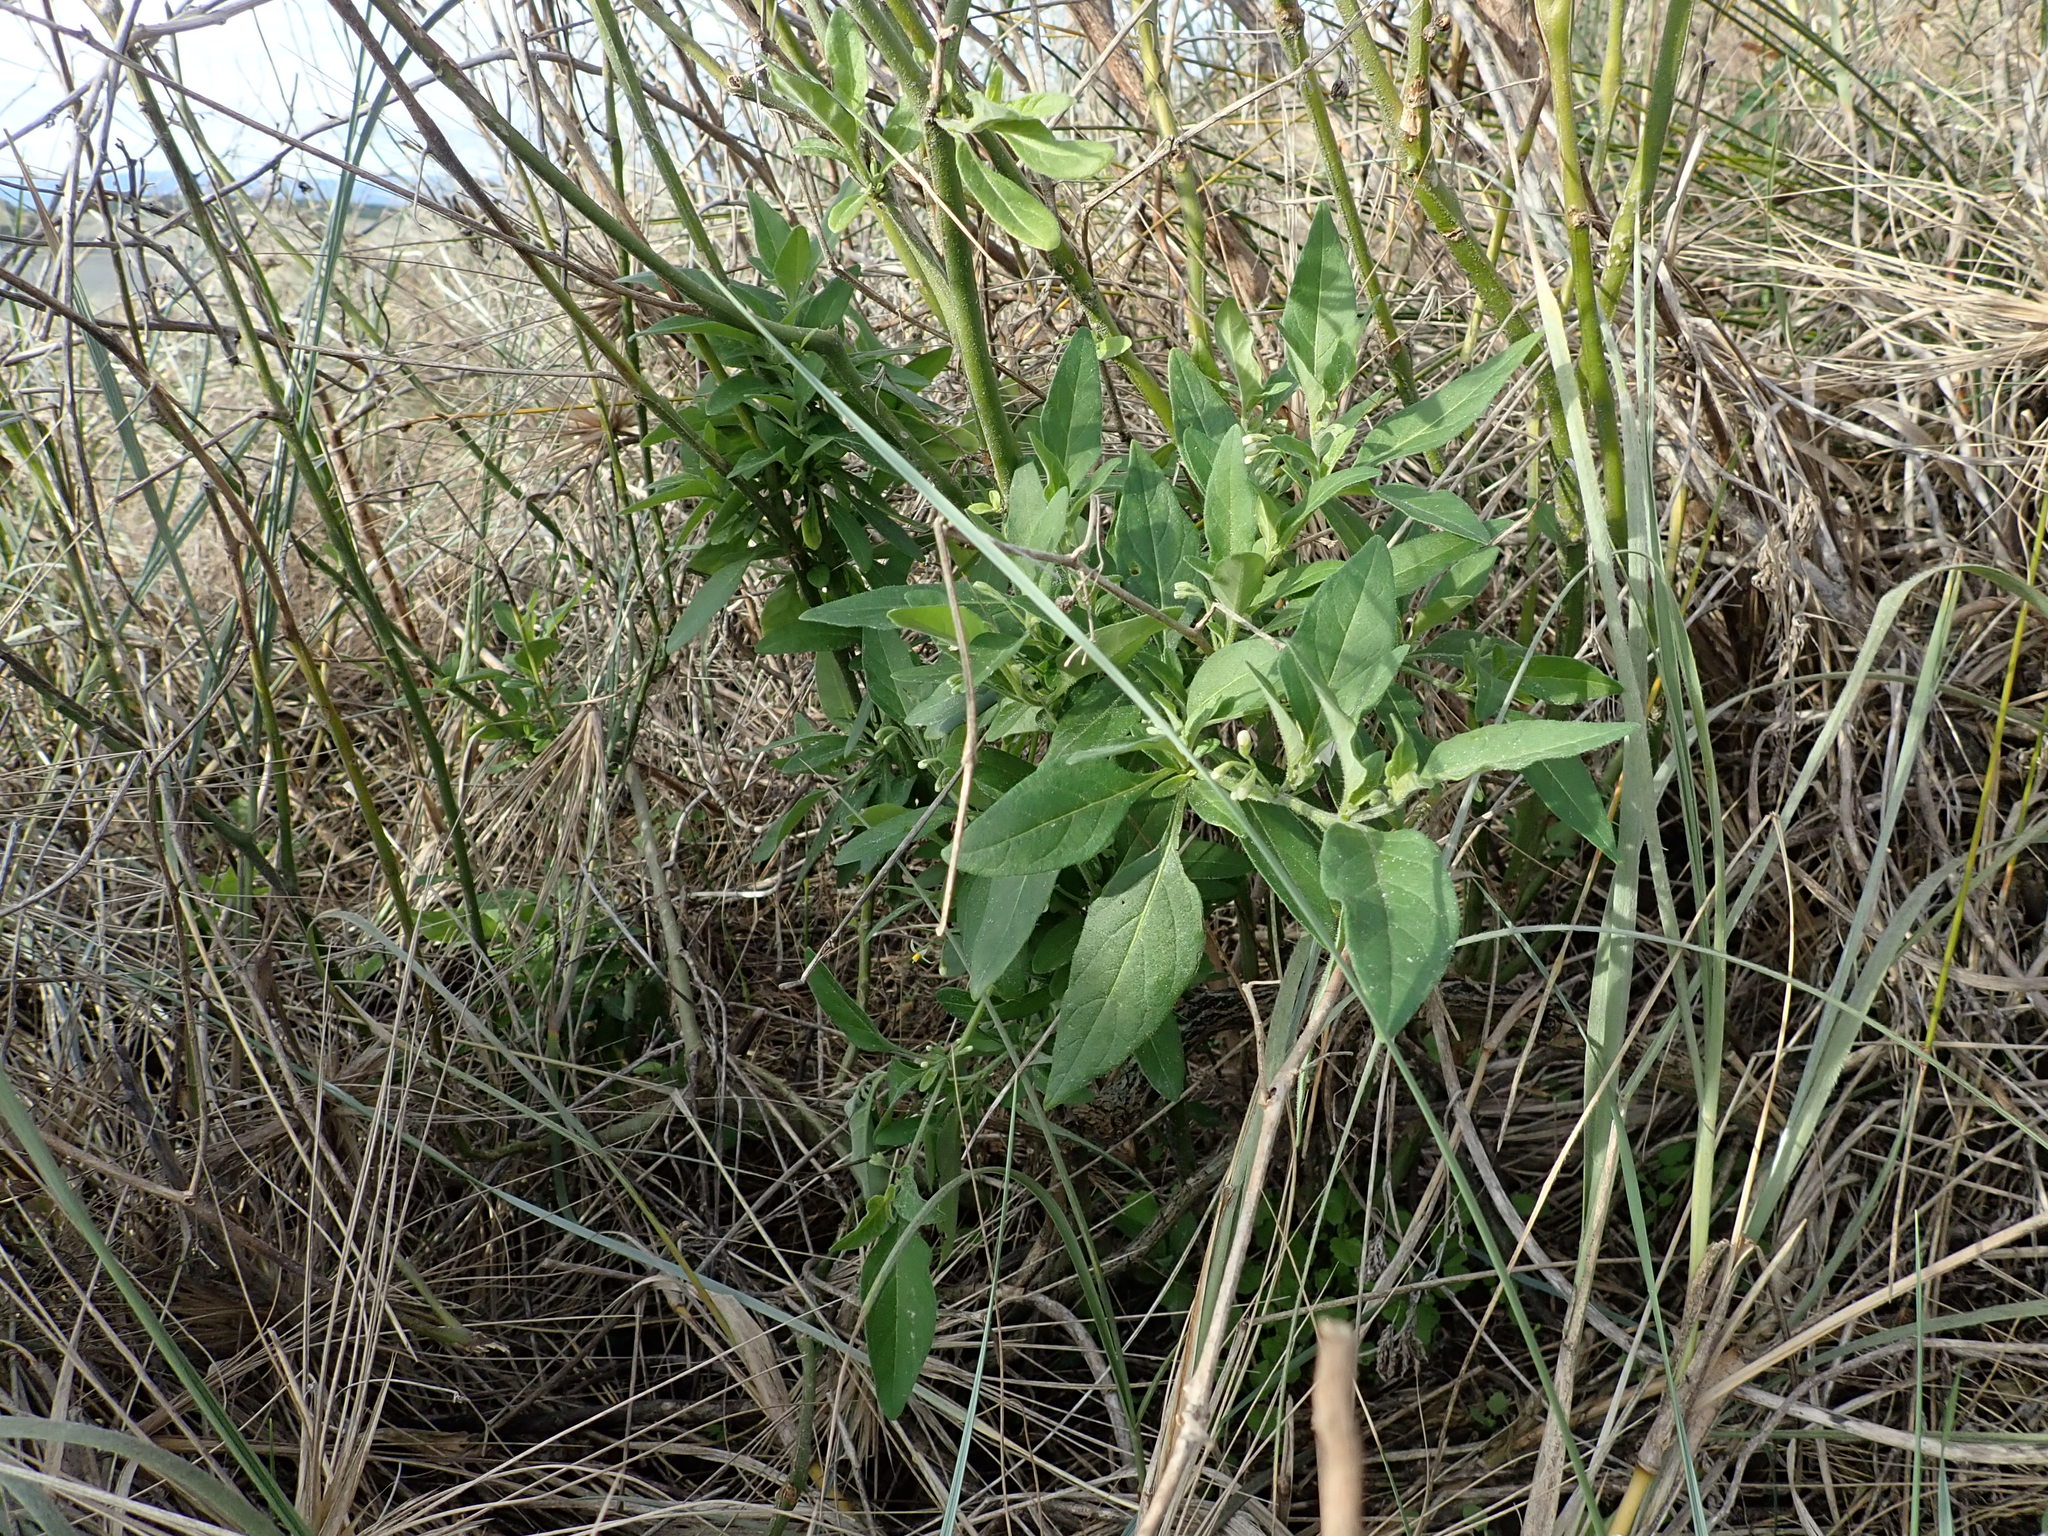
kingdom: Plantae
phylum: Tracheophyta
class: Magnoliopsida
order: Solanales
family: Solanaceae
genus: Solanum
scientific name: Solanum chenopodioides
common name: Tall nightshade
